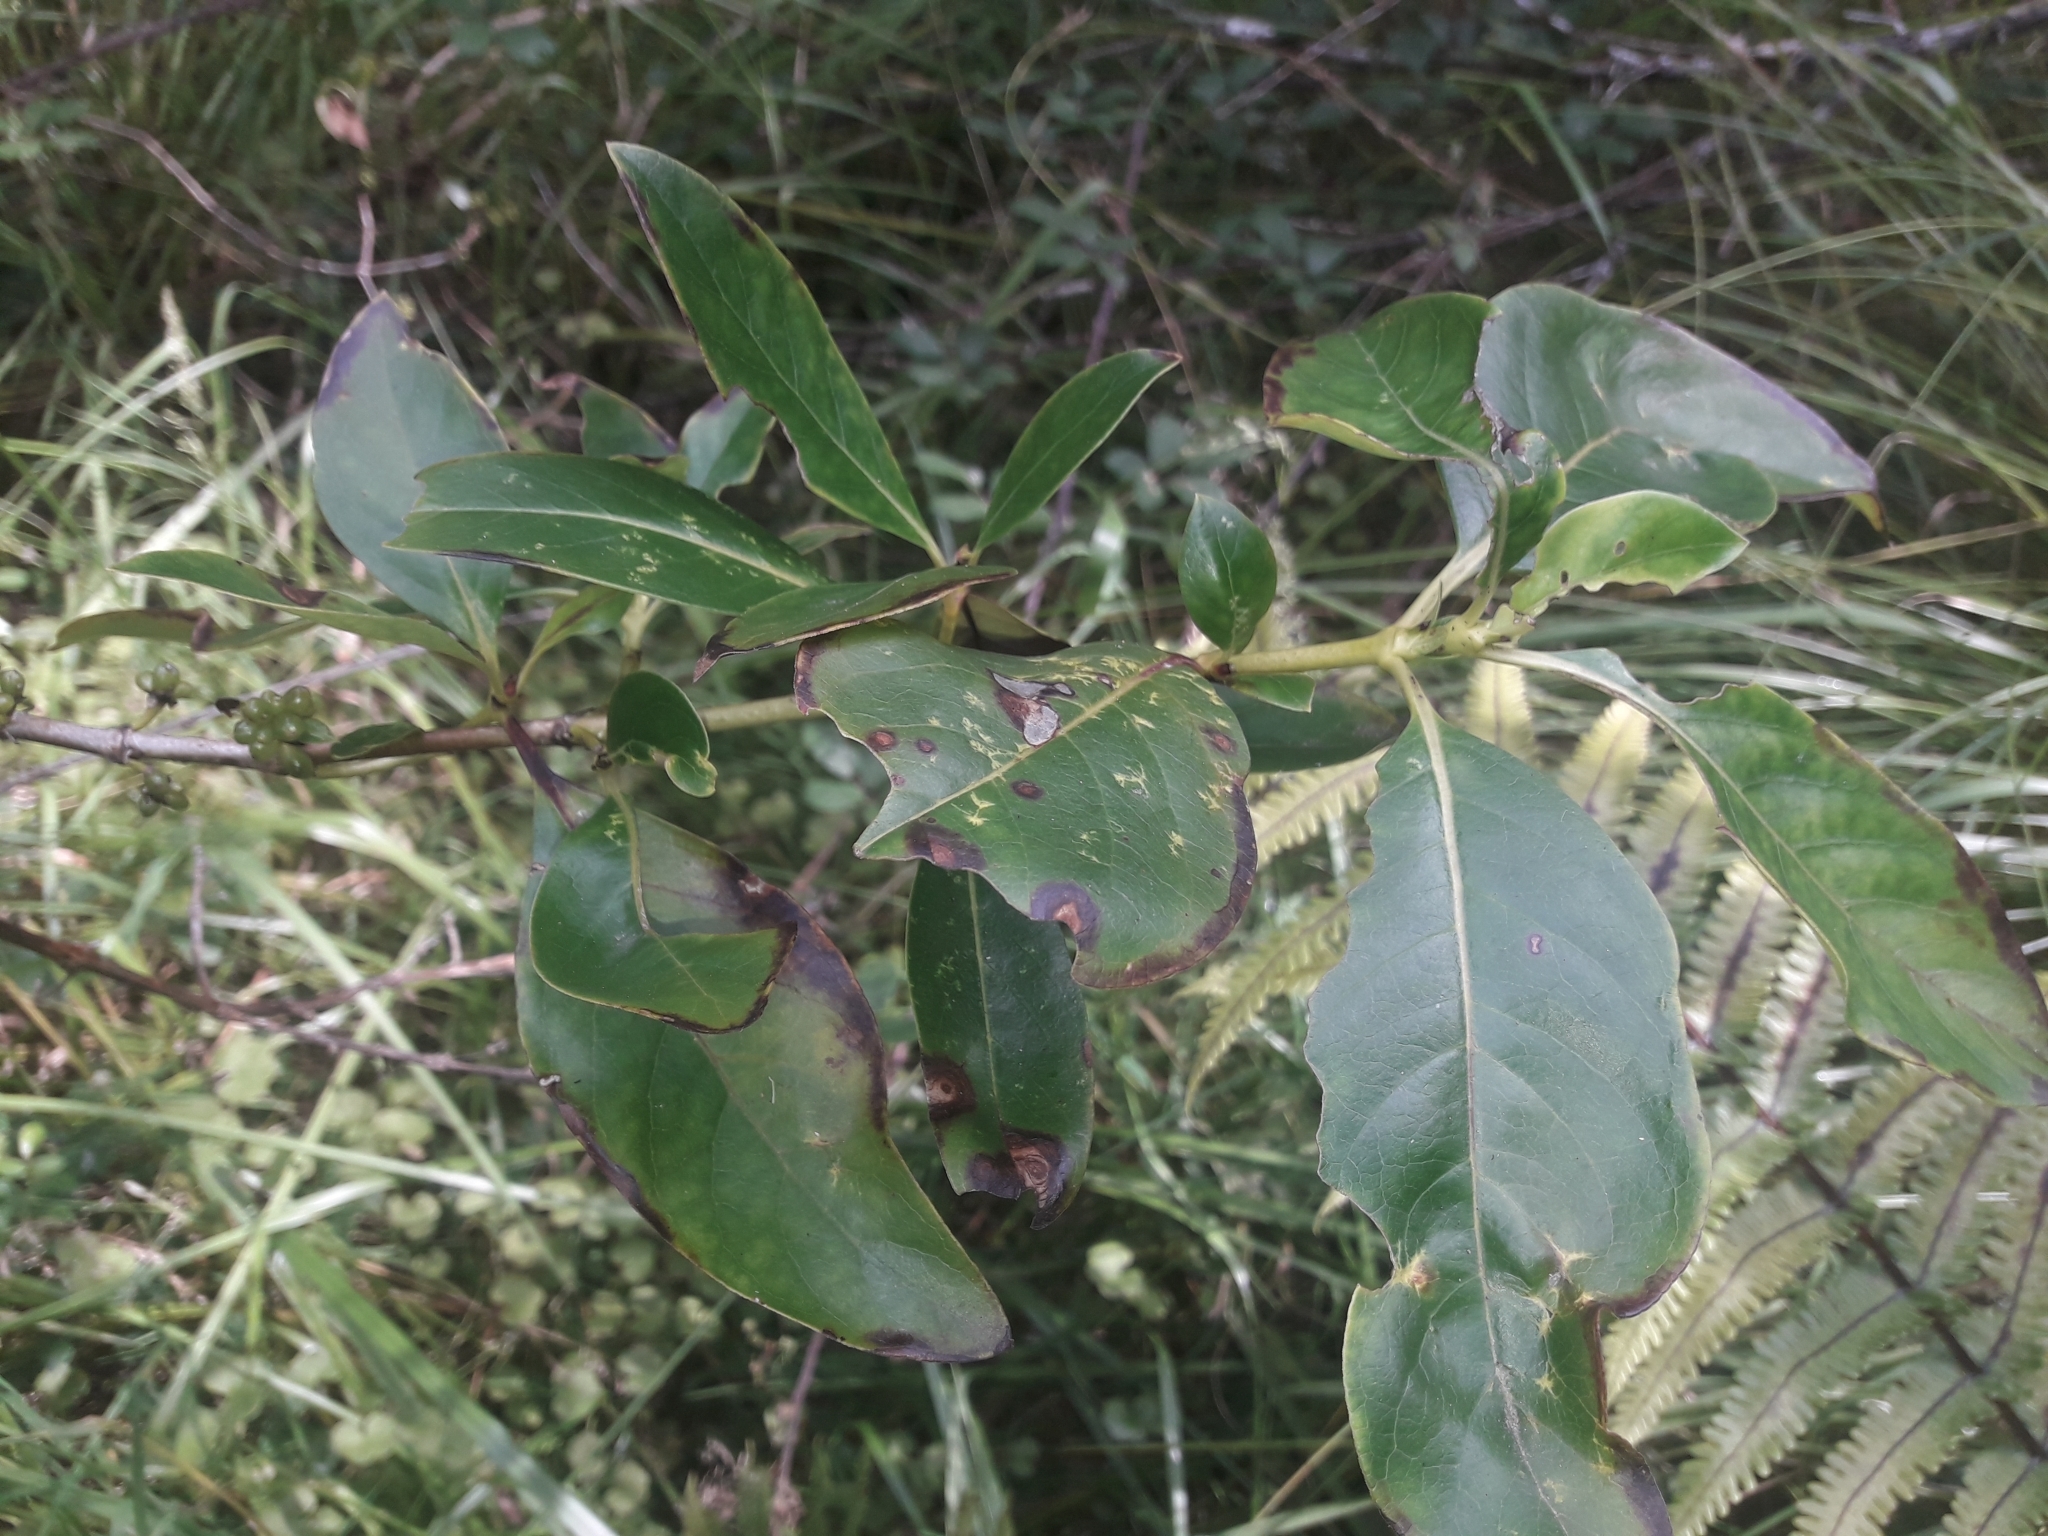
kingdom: Plantae
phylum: Tracheophyta
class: Magnoliopsida
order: Gentianales
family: Rubiaceae
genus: Coprosma
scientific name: Coprosma robusta
